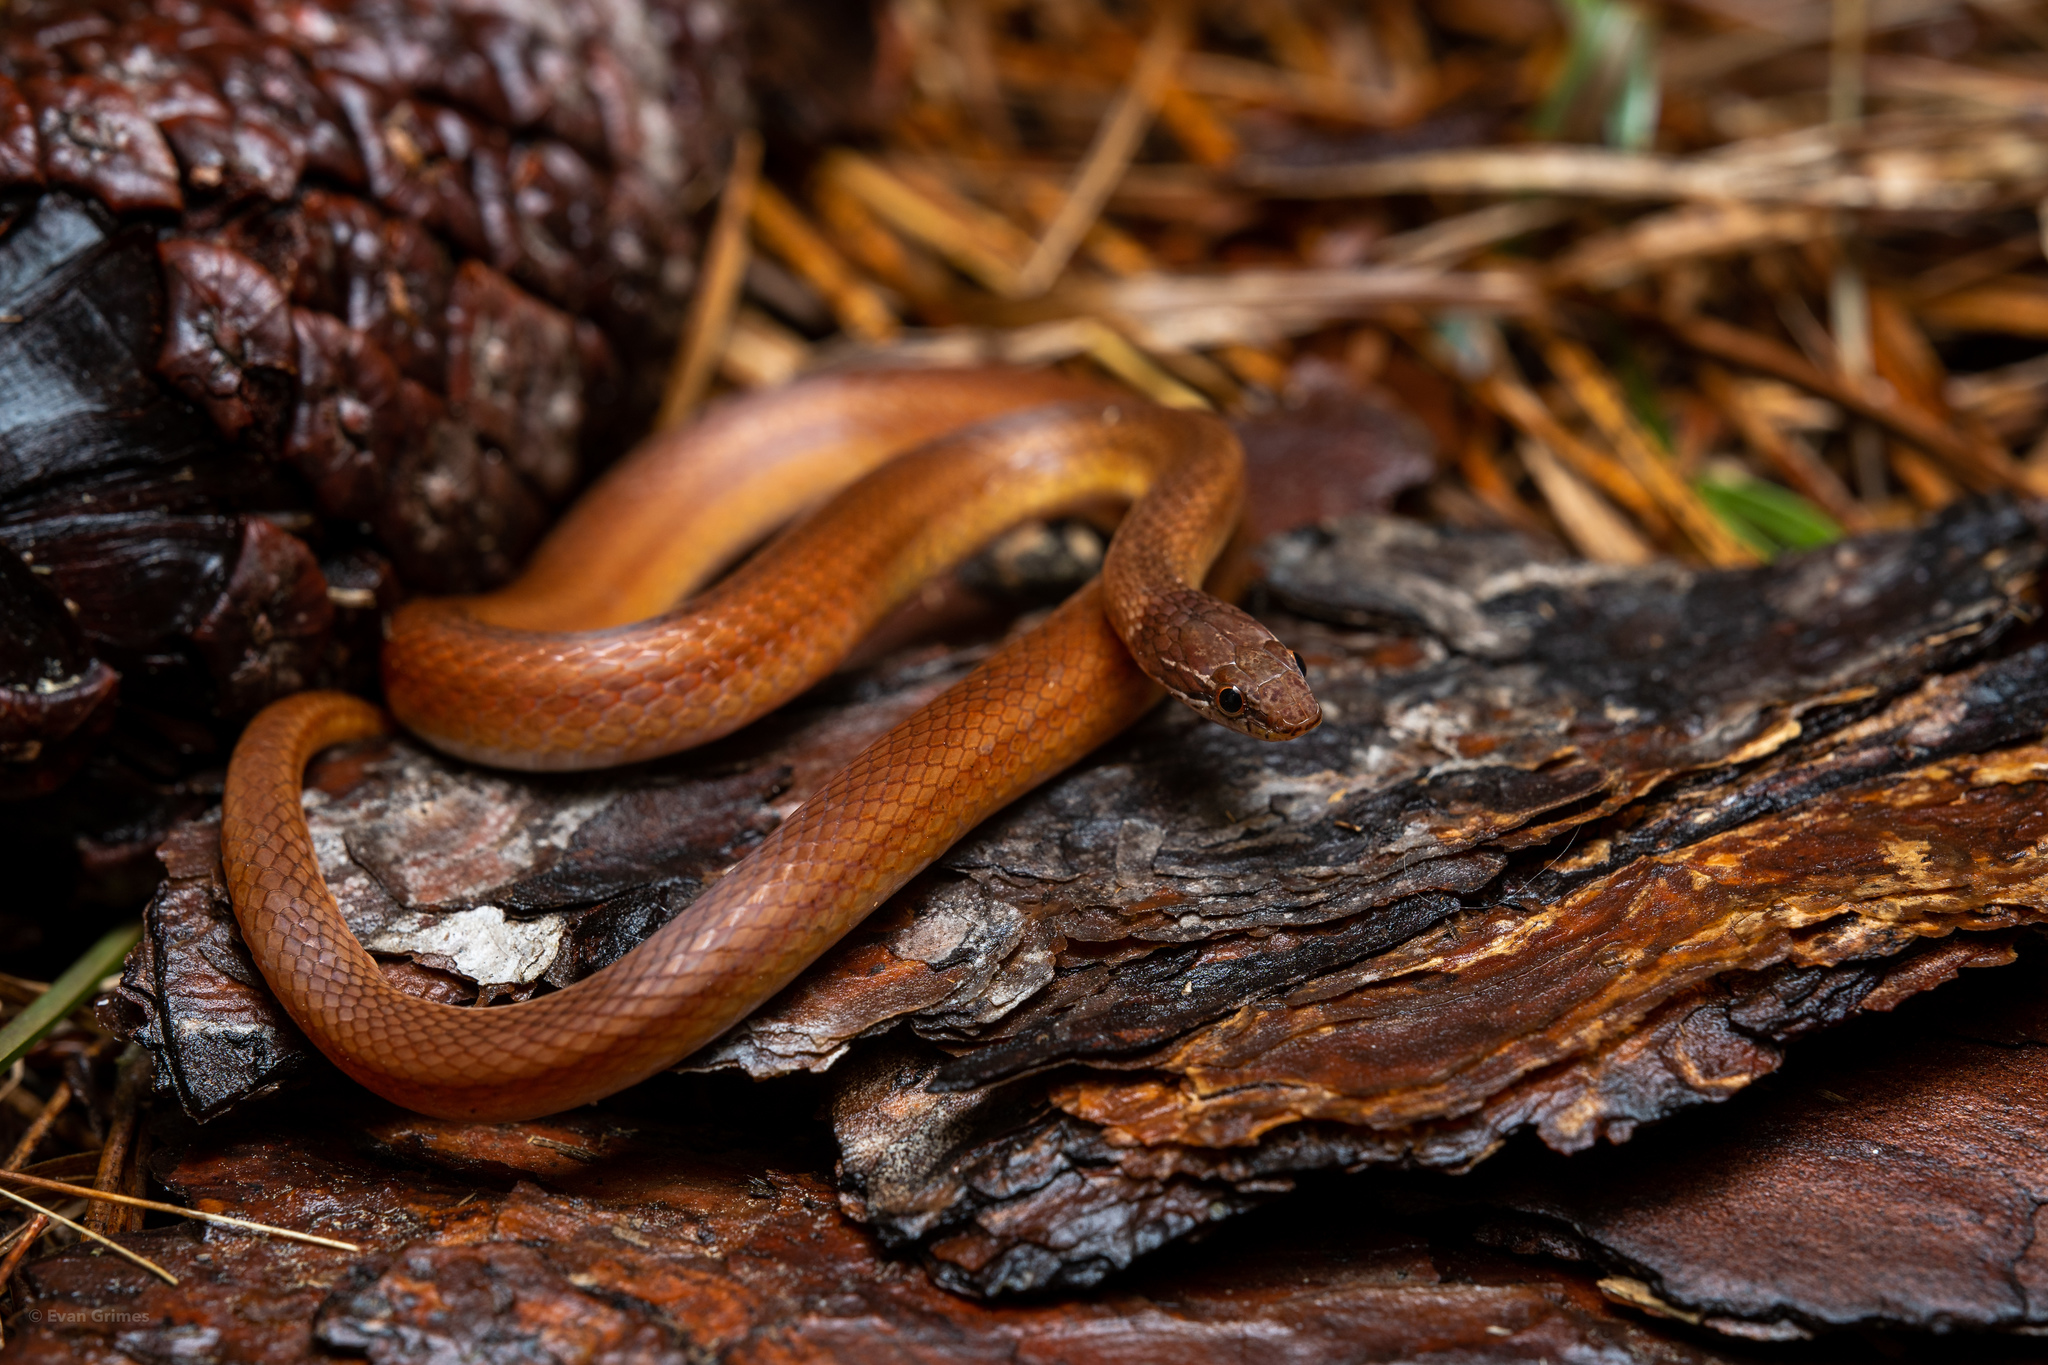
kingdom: Animalia
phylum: Chordata
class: Squamata
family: Colubridae
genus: Rhadinaea
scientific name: Rhadinaea flavilata
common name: Pine woods littersnake
